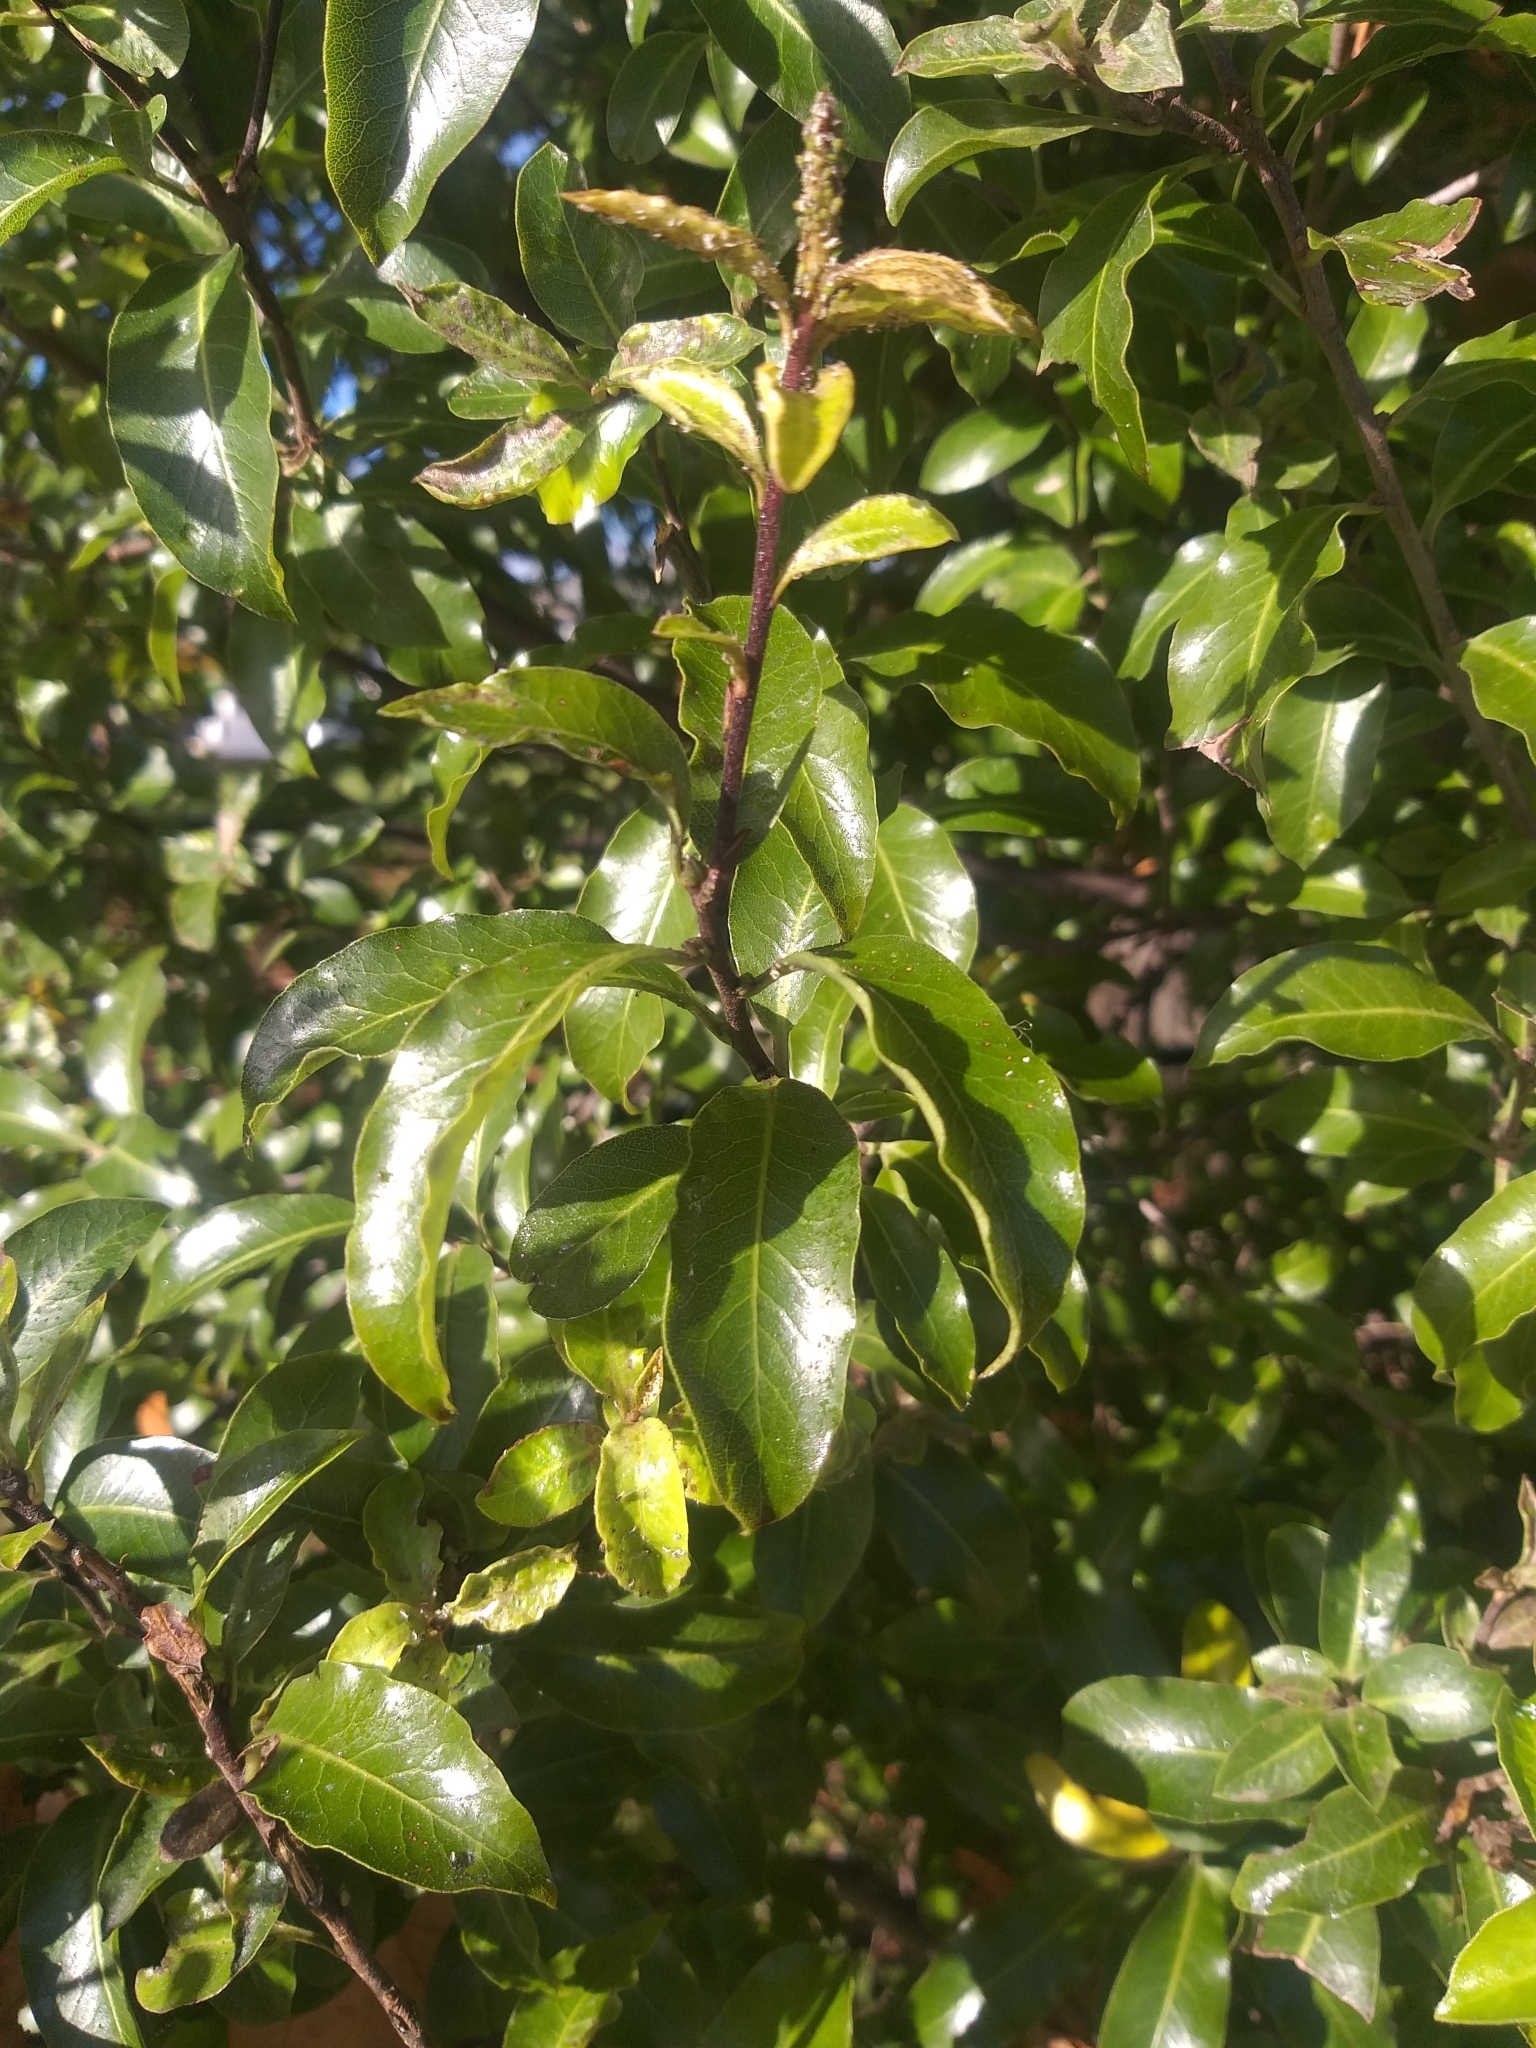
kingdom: Plantae
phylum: Tracheophyta
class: Magnoliopsida
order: Apiales
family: Pittosporaceae
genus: Pittosporum
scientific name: Pittosporum tenuifolium
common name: Kohuhu
